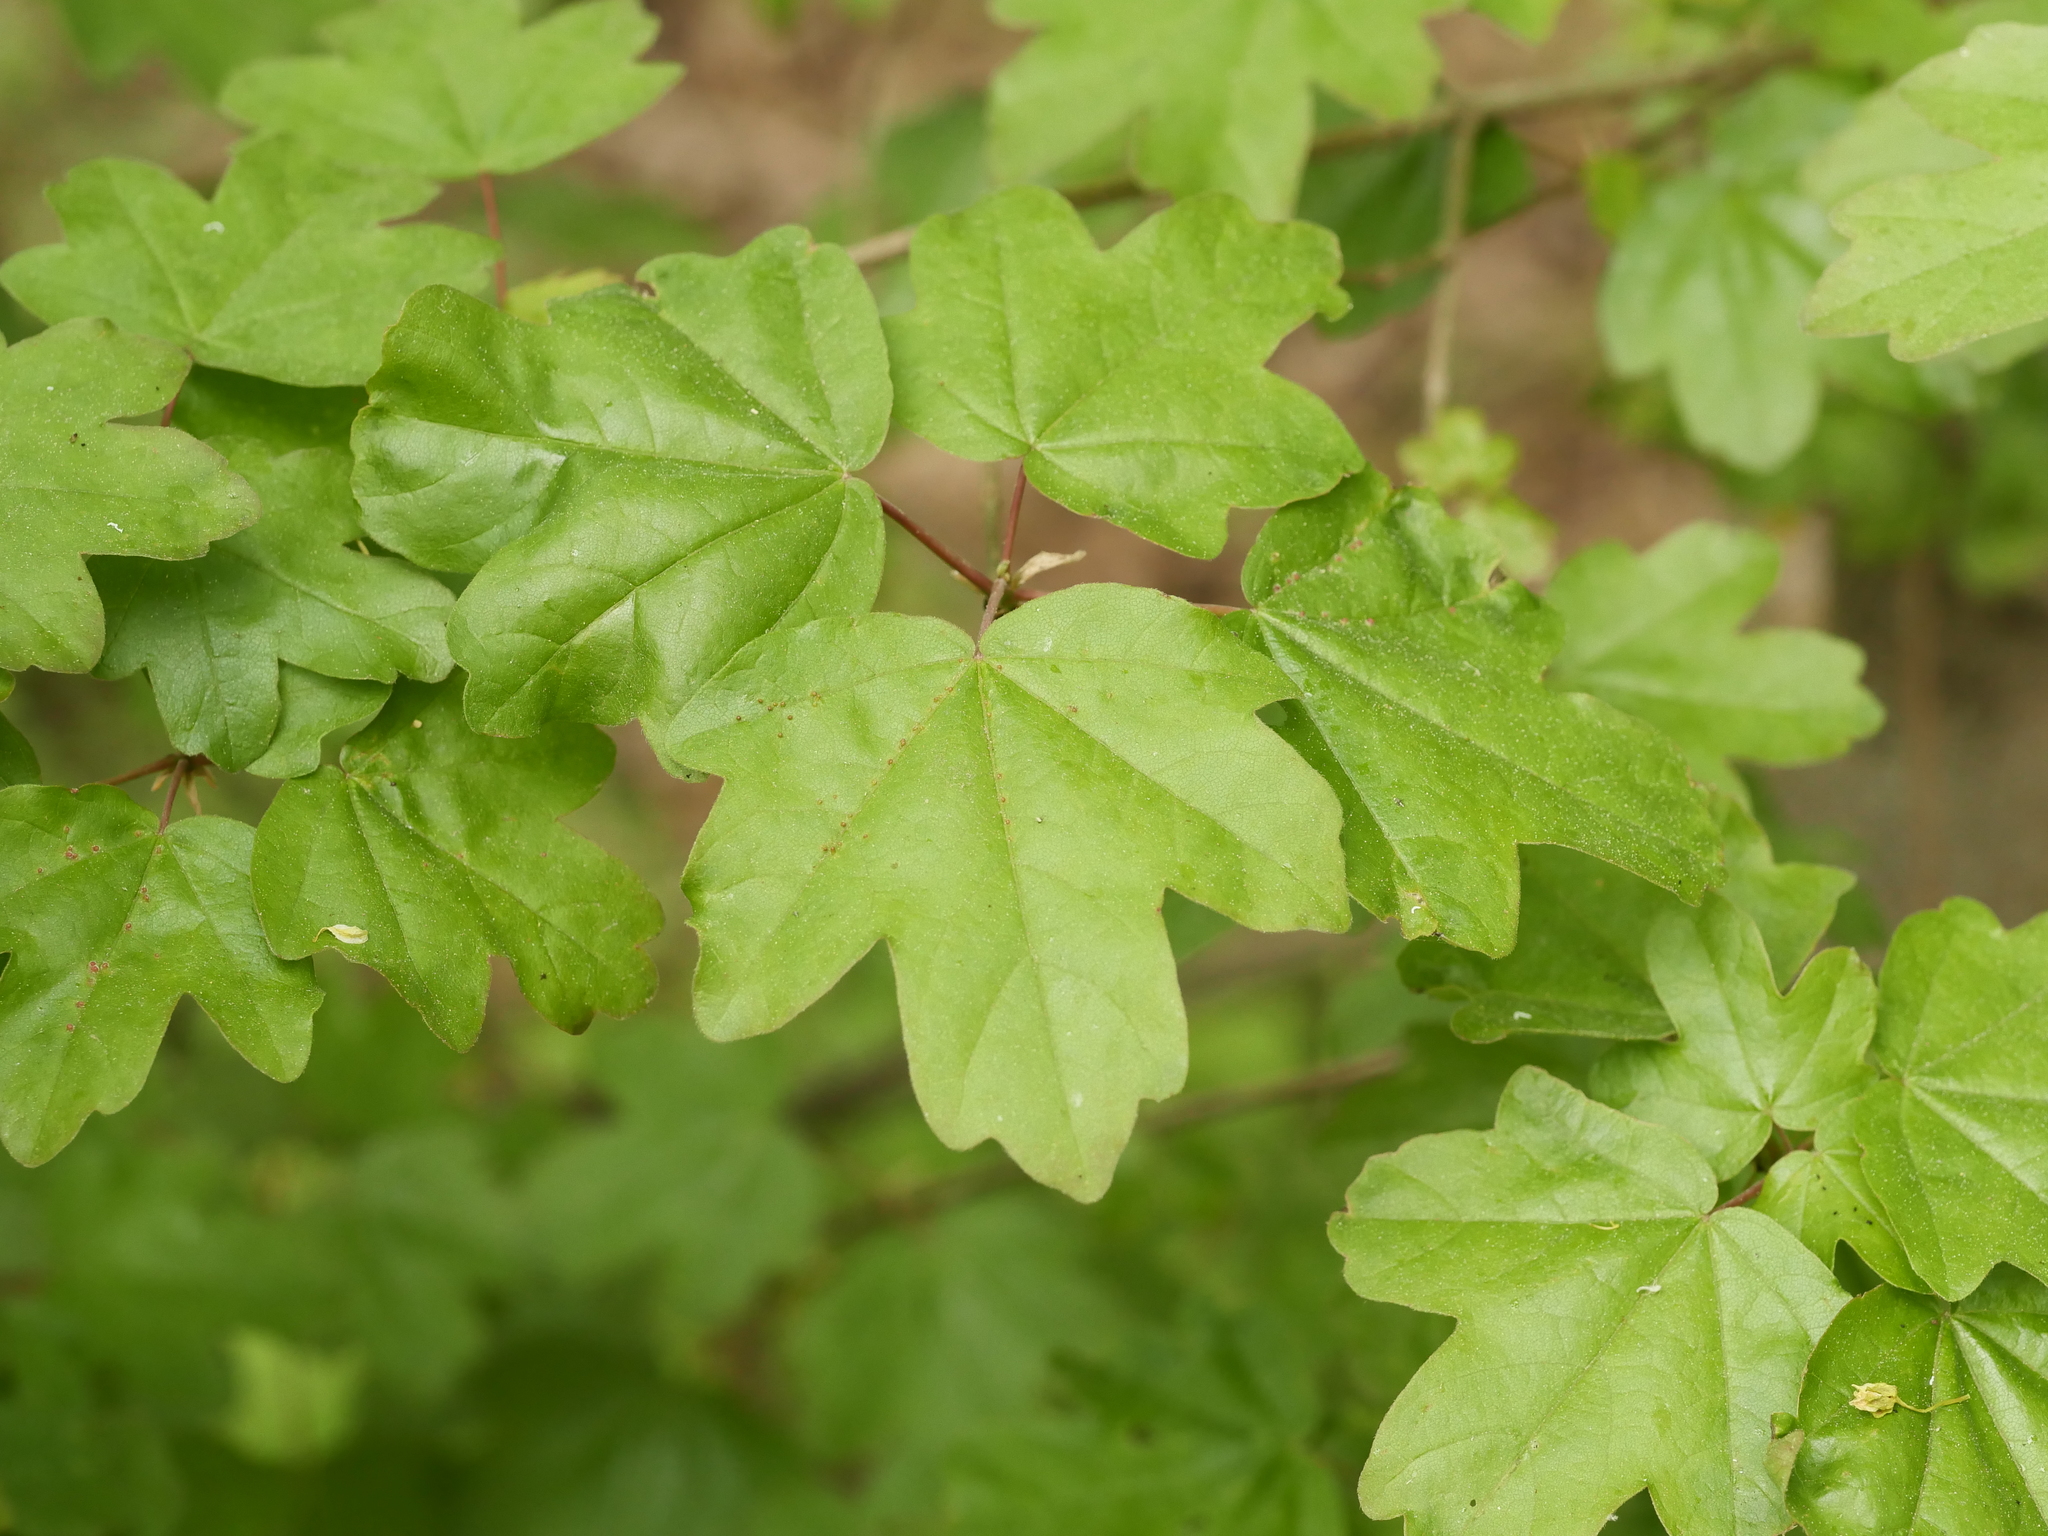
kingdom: Plantae
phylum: Tracheophyta
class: Magnoliopsida
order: Sapindales
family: Sapindaceae
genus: Acer
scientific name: Acer campestre
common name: Field maple
